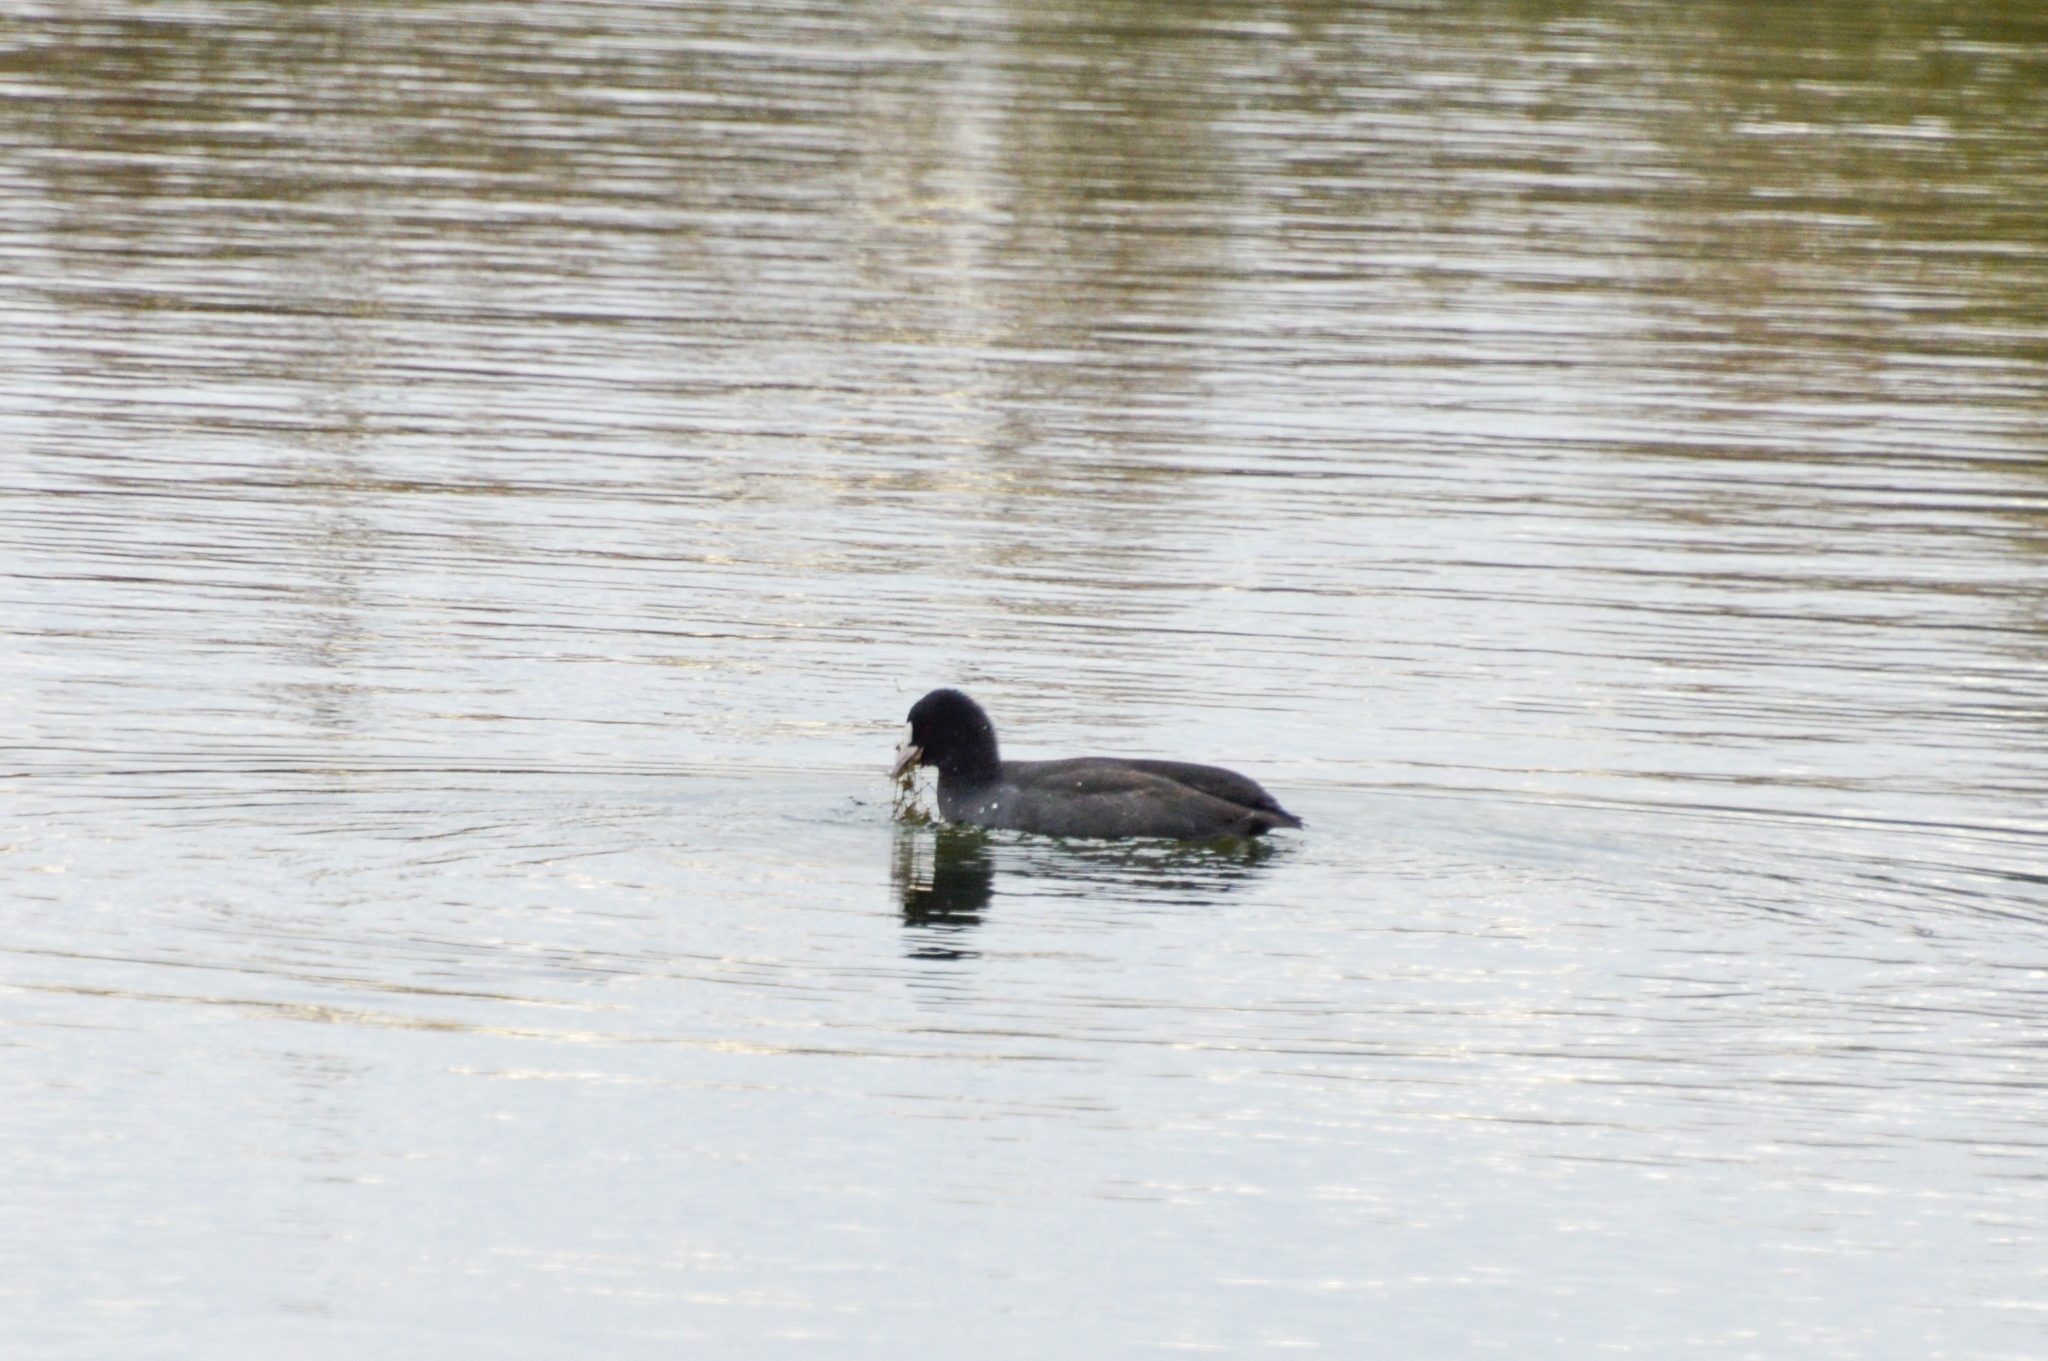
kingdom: Animalia
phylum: Chordata
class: Aves
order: Gruiformes
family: Rallidae
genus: Fulica
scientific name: Fulica atra
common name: Eurasian coot
